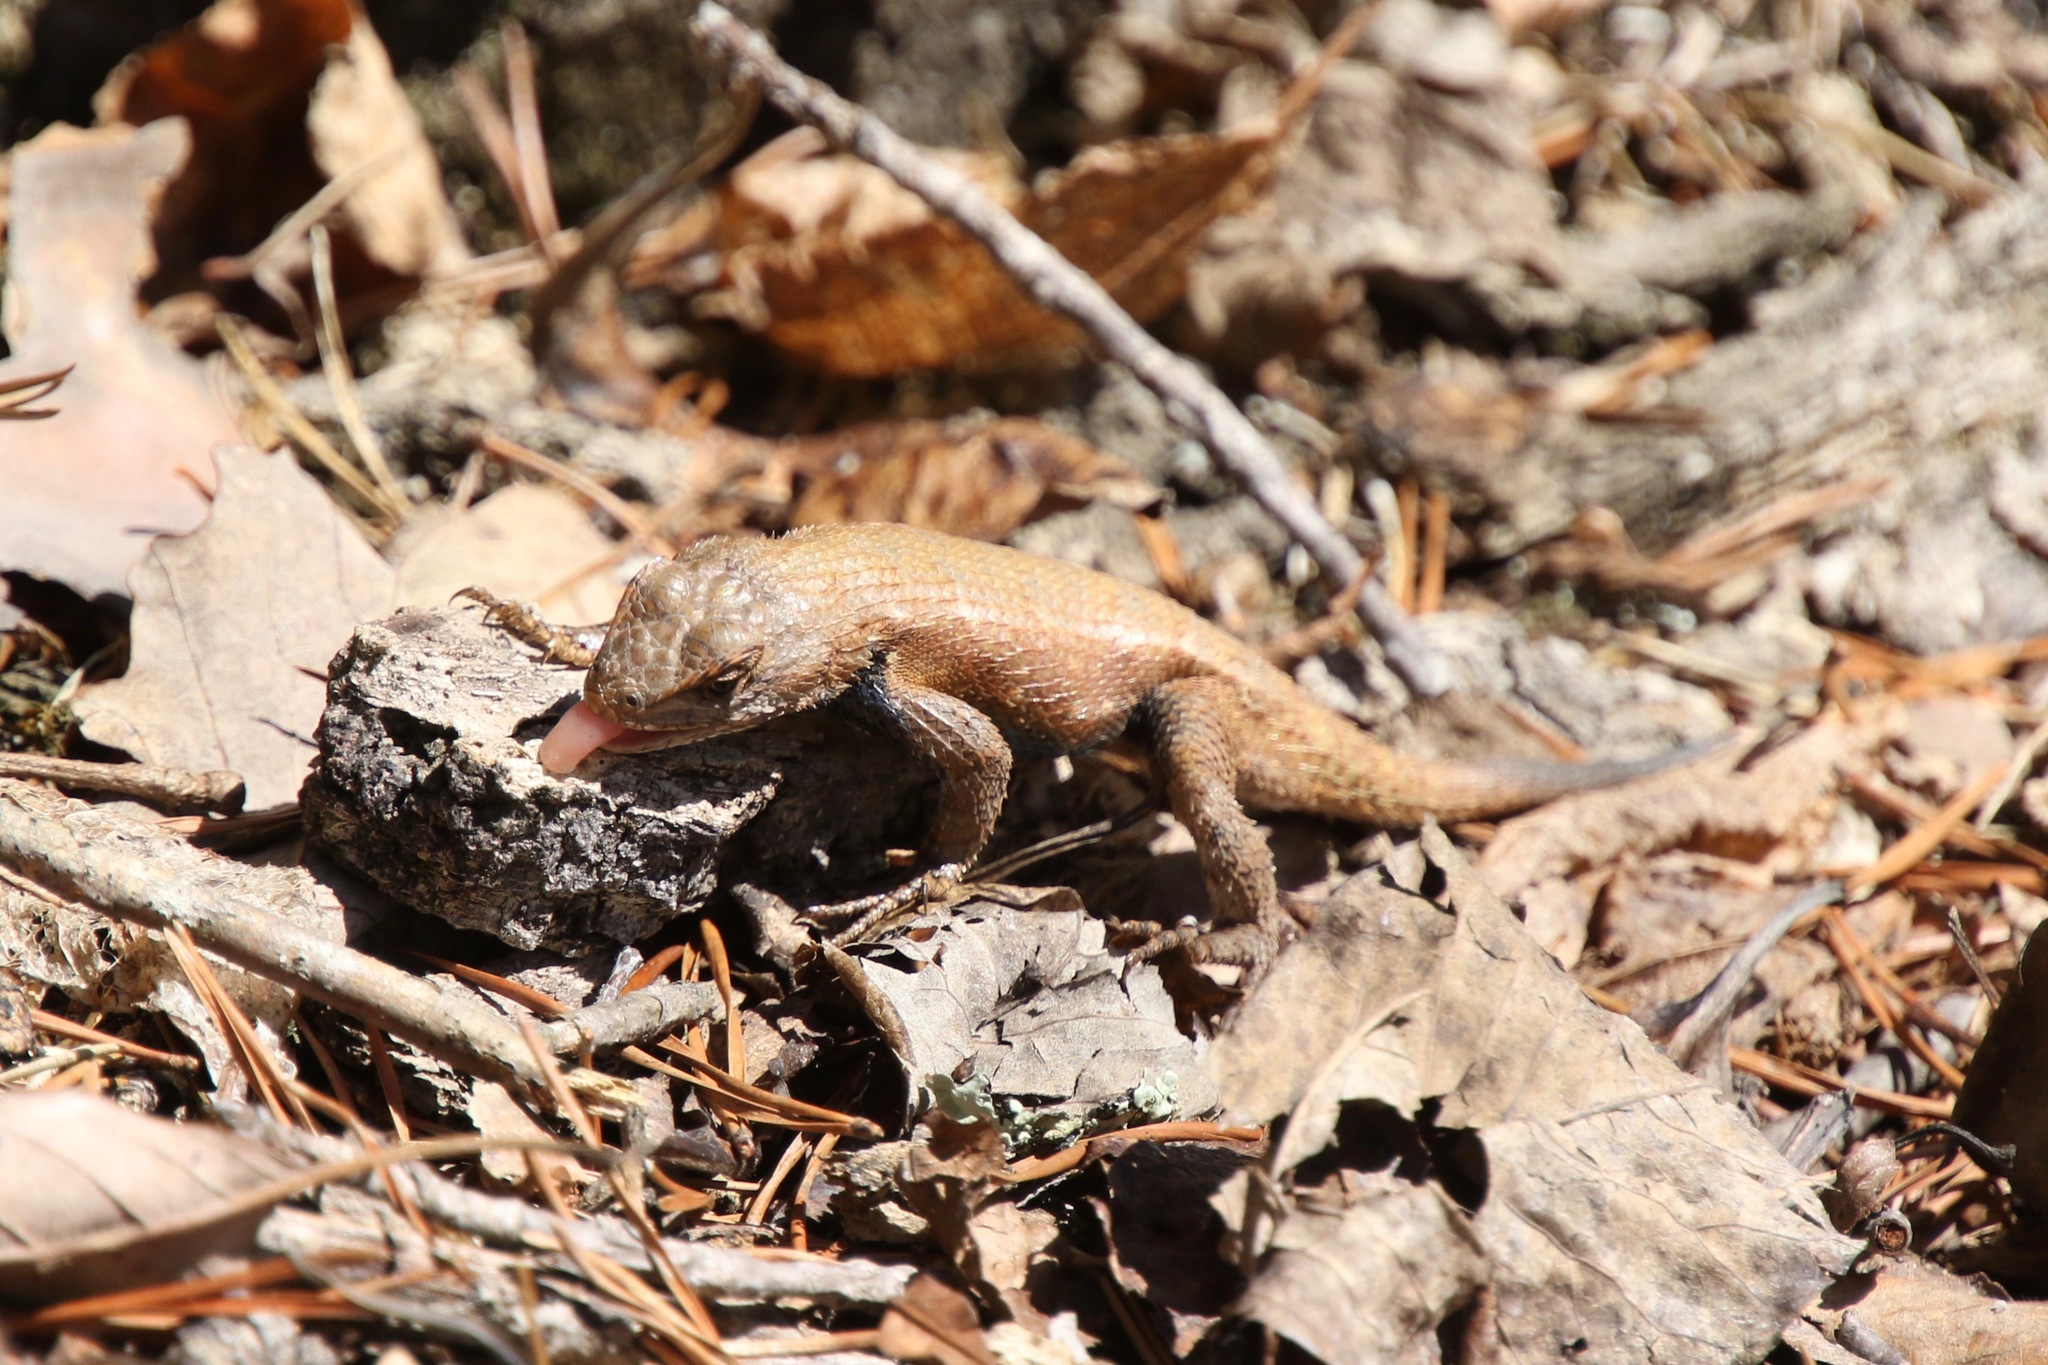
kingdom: Animalia
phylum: Chordata
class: Squamata
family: Phrynosomatidae
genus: Sceloporus
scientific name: Sceloporus undulatus
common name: Eastern fence lizard
